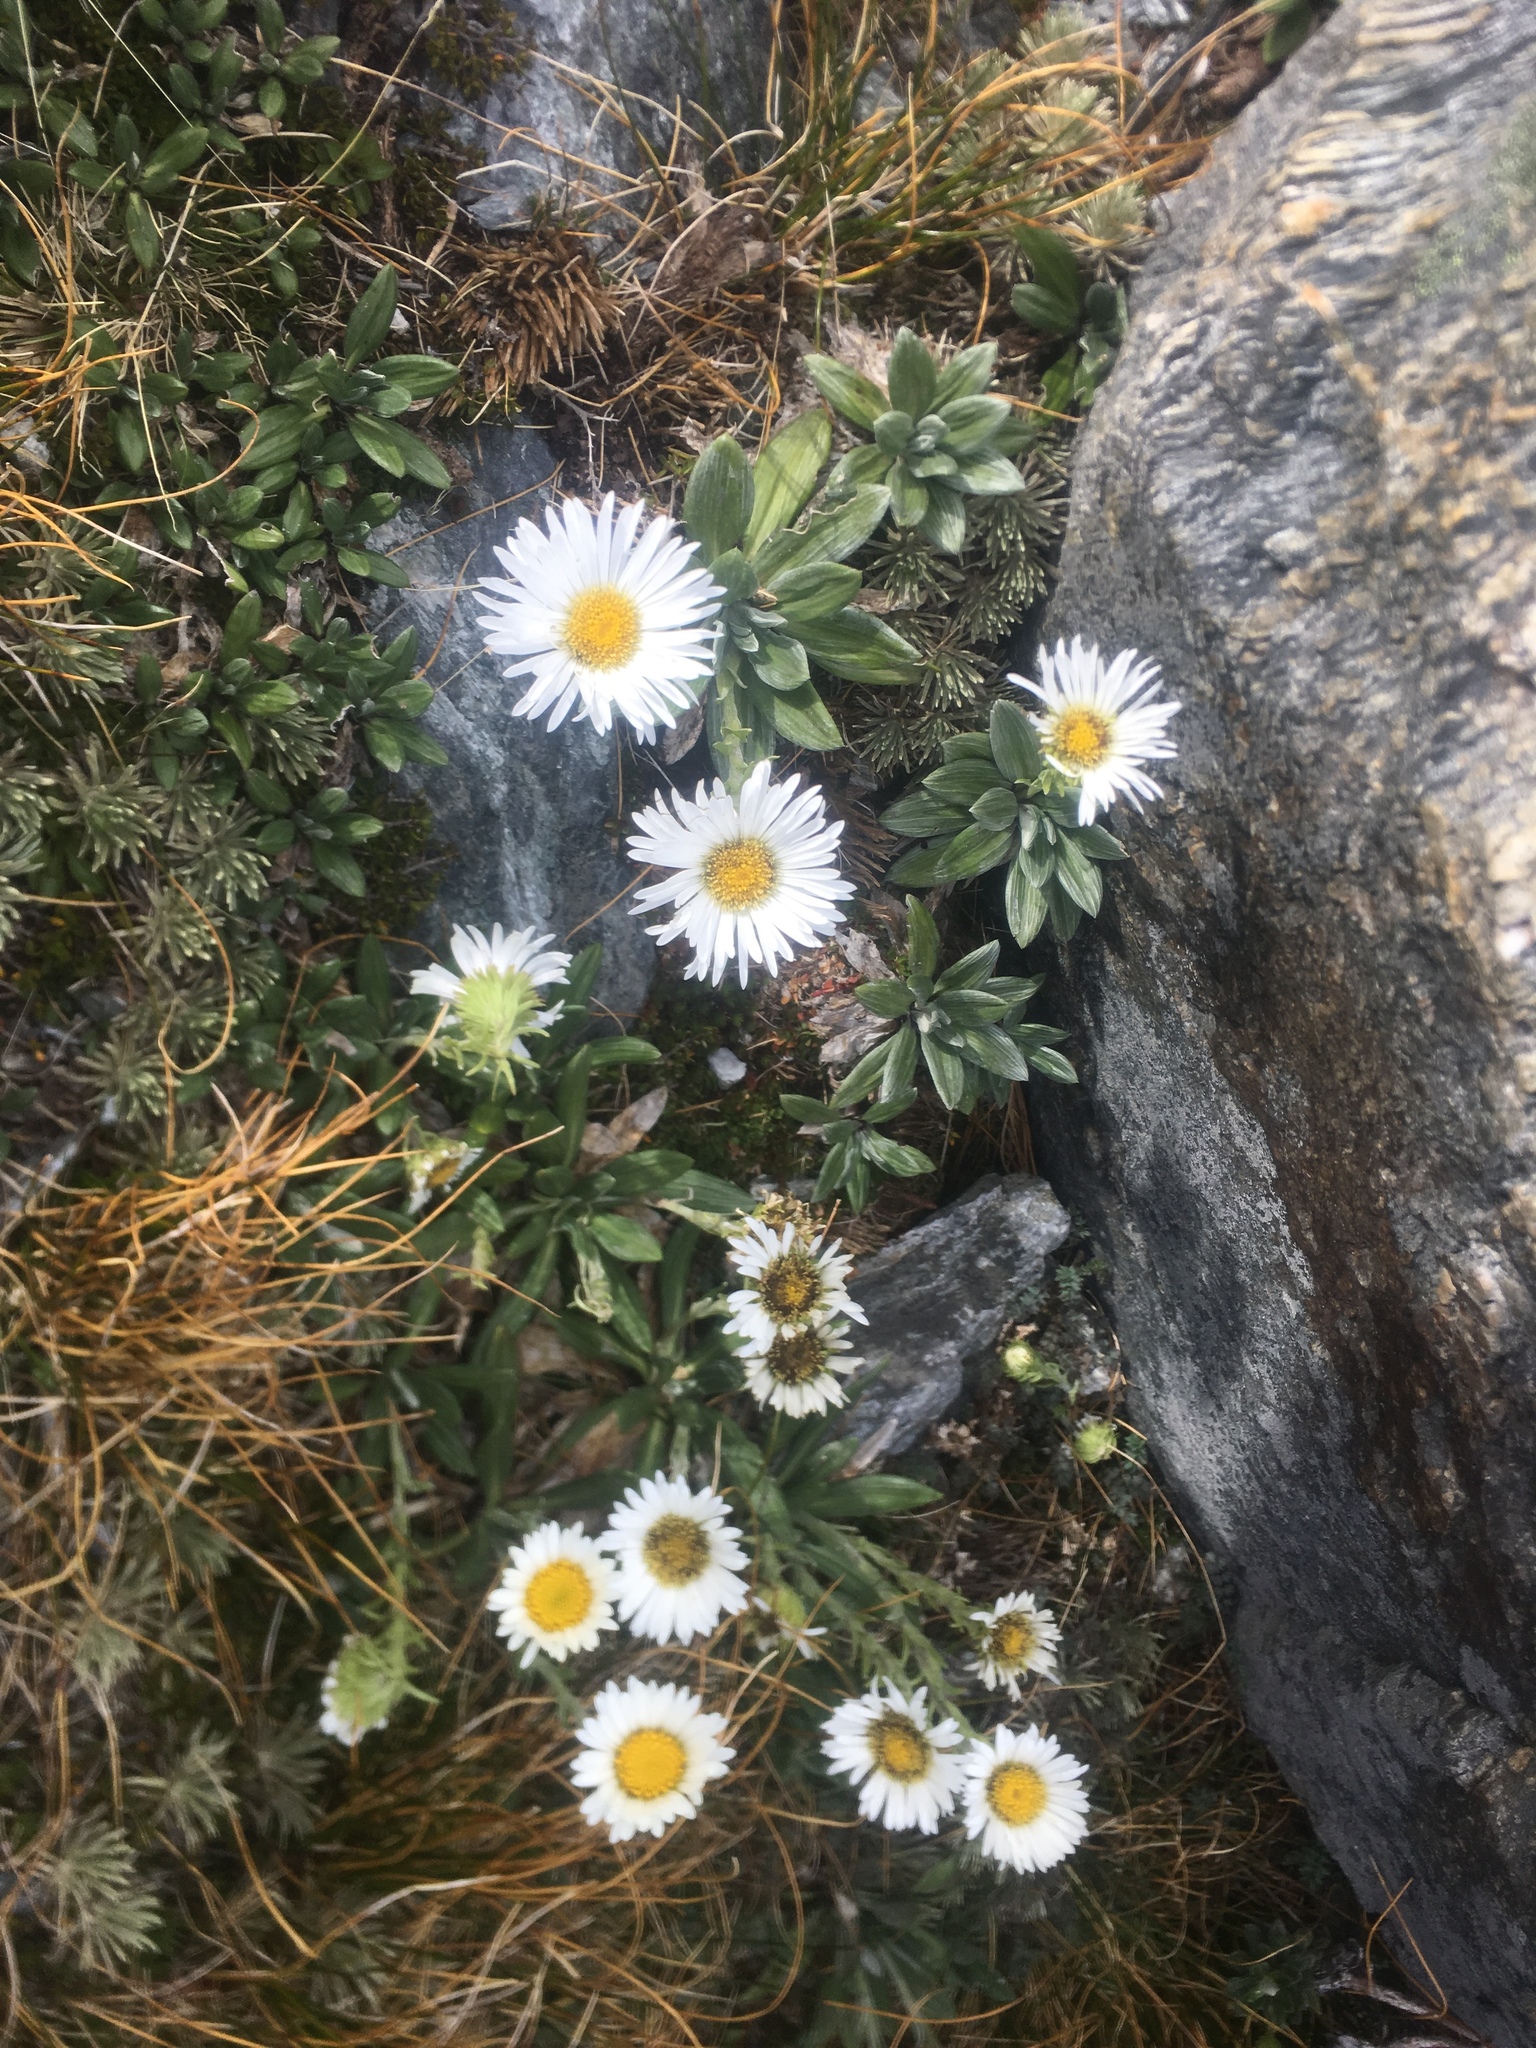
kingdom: Plantae
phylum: Tracheophyta
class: Magnoliopsida
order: Asterales
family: Asteraceae
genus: Celmisia
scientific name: Celmisia brevifolia
